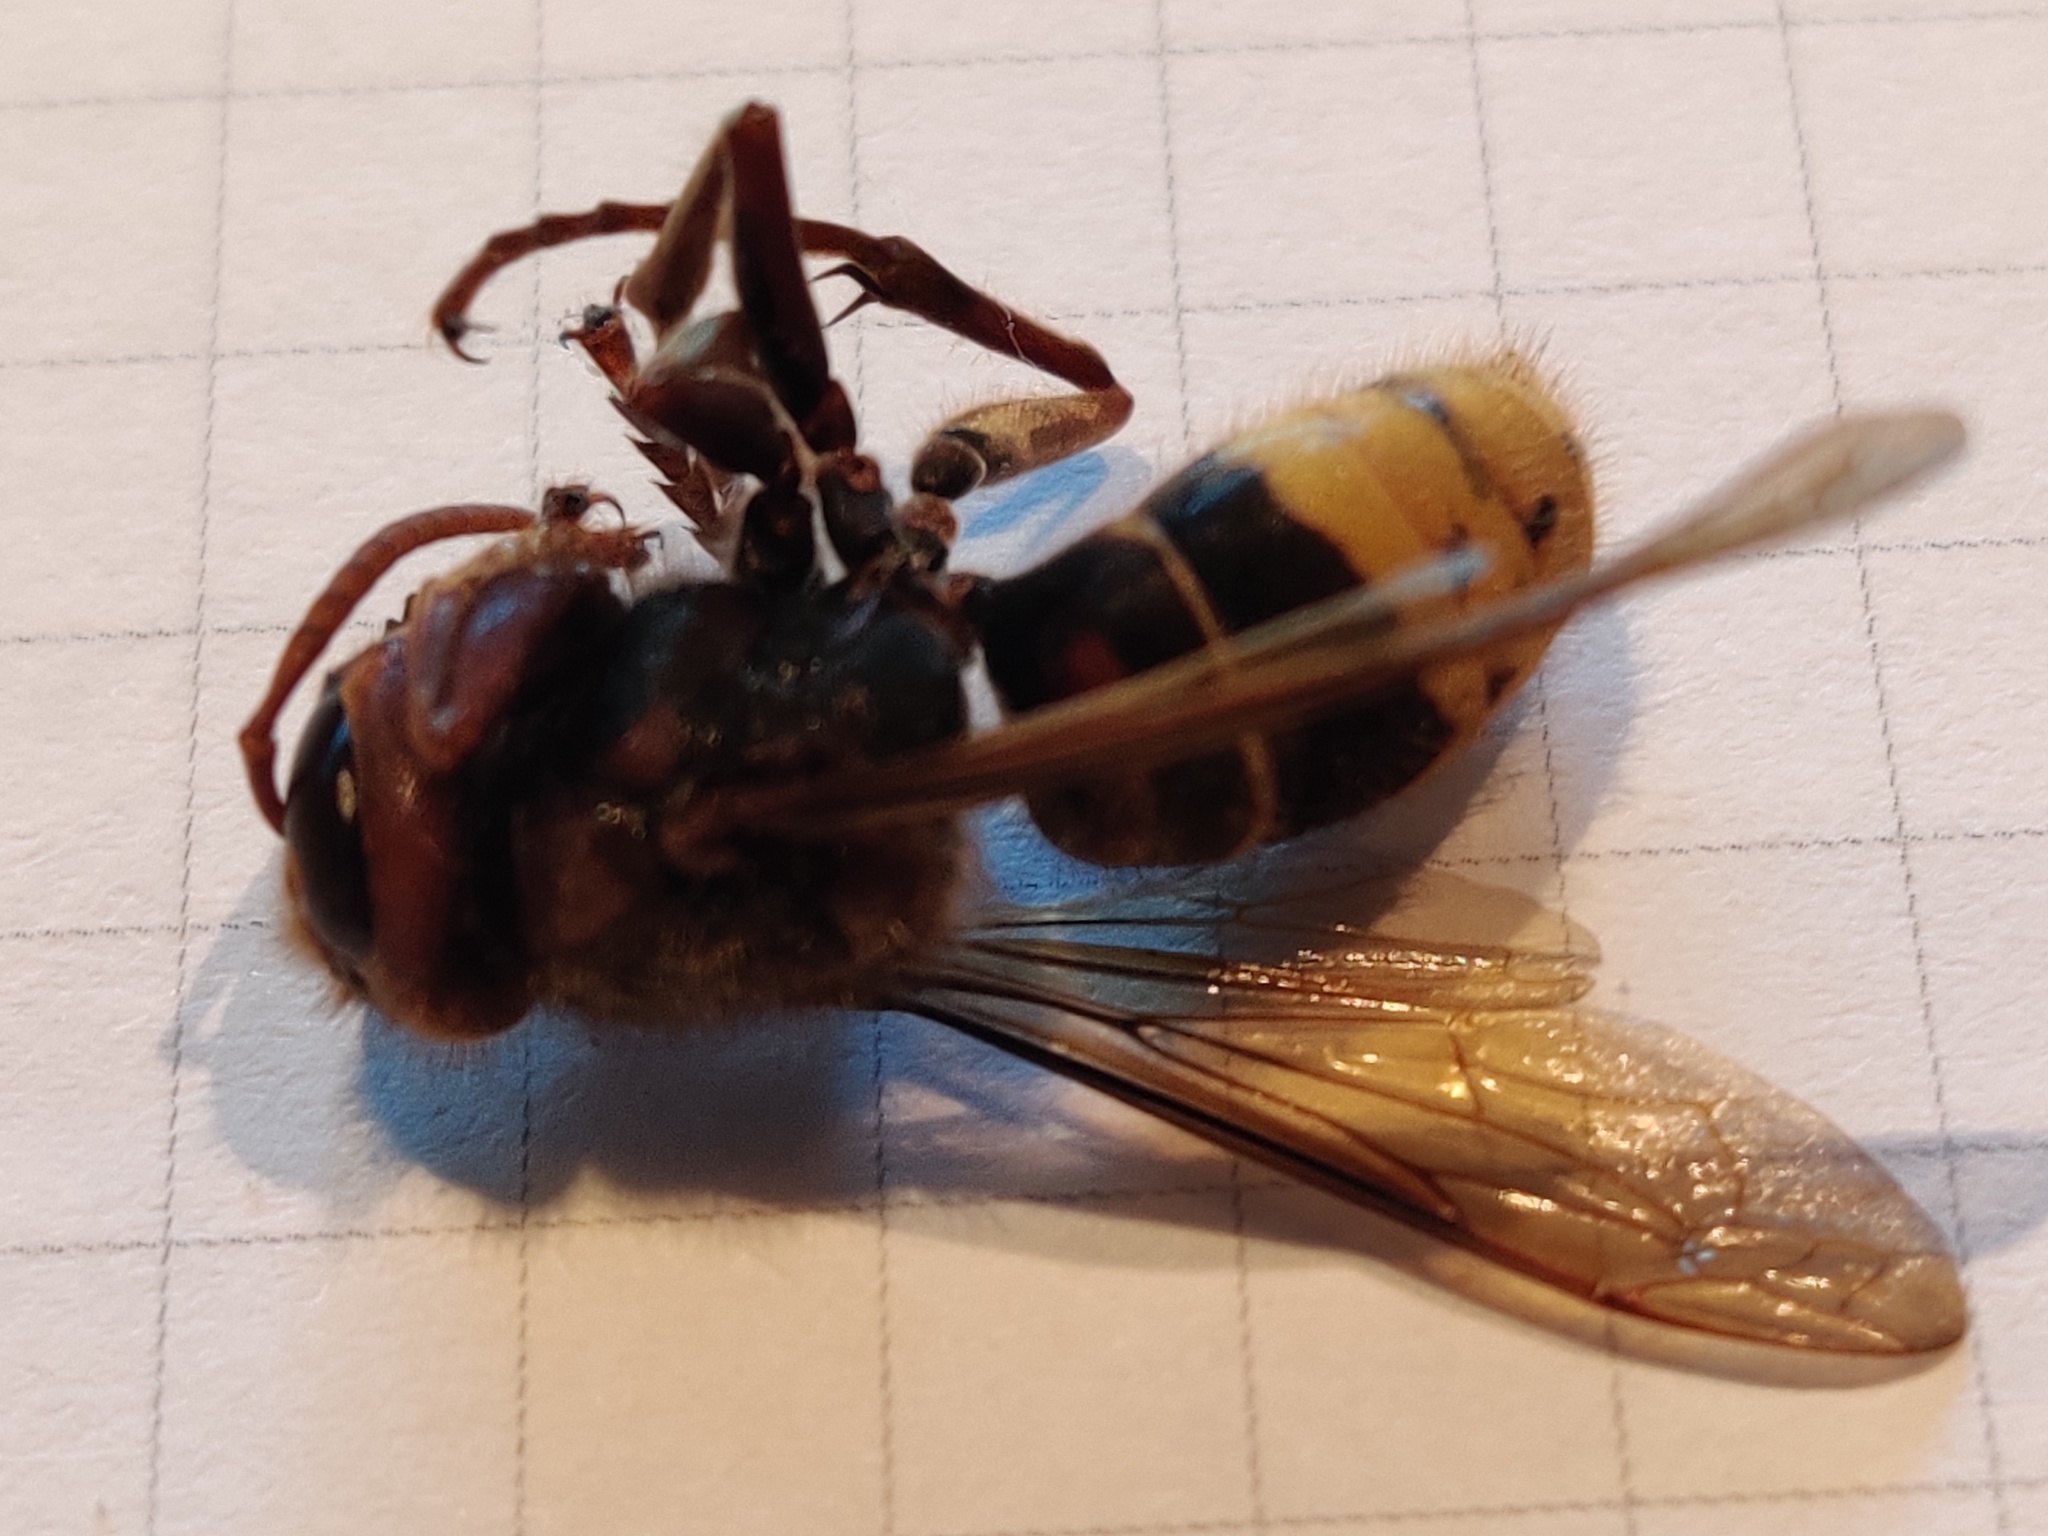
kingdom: Animalia
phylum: Arthropoda
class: Insecta
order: Hymenoptera
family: Vespidae
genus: Vespa
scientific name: Vespa crabro
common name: Hornet
